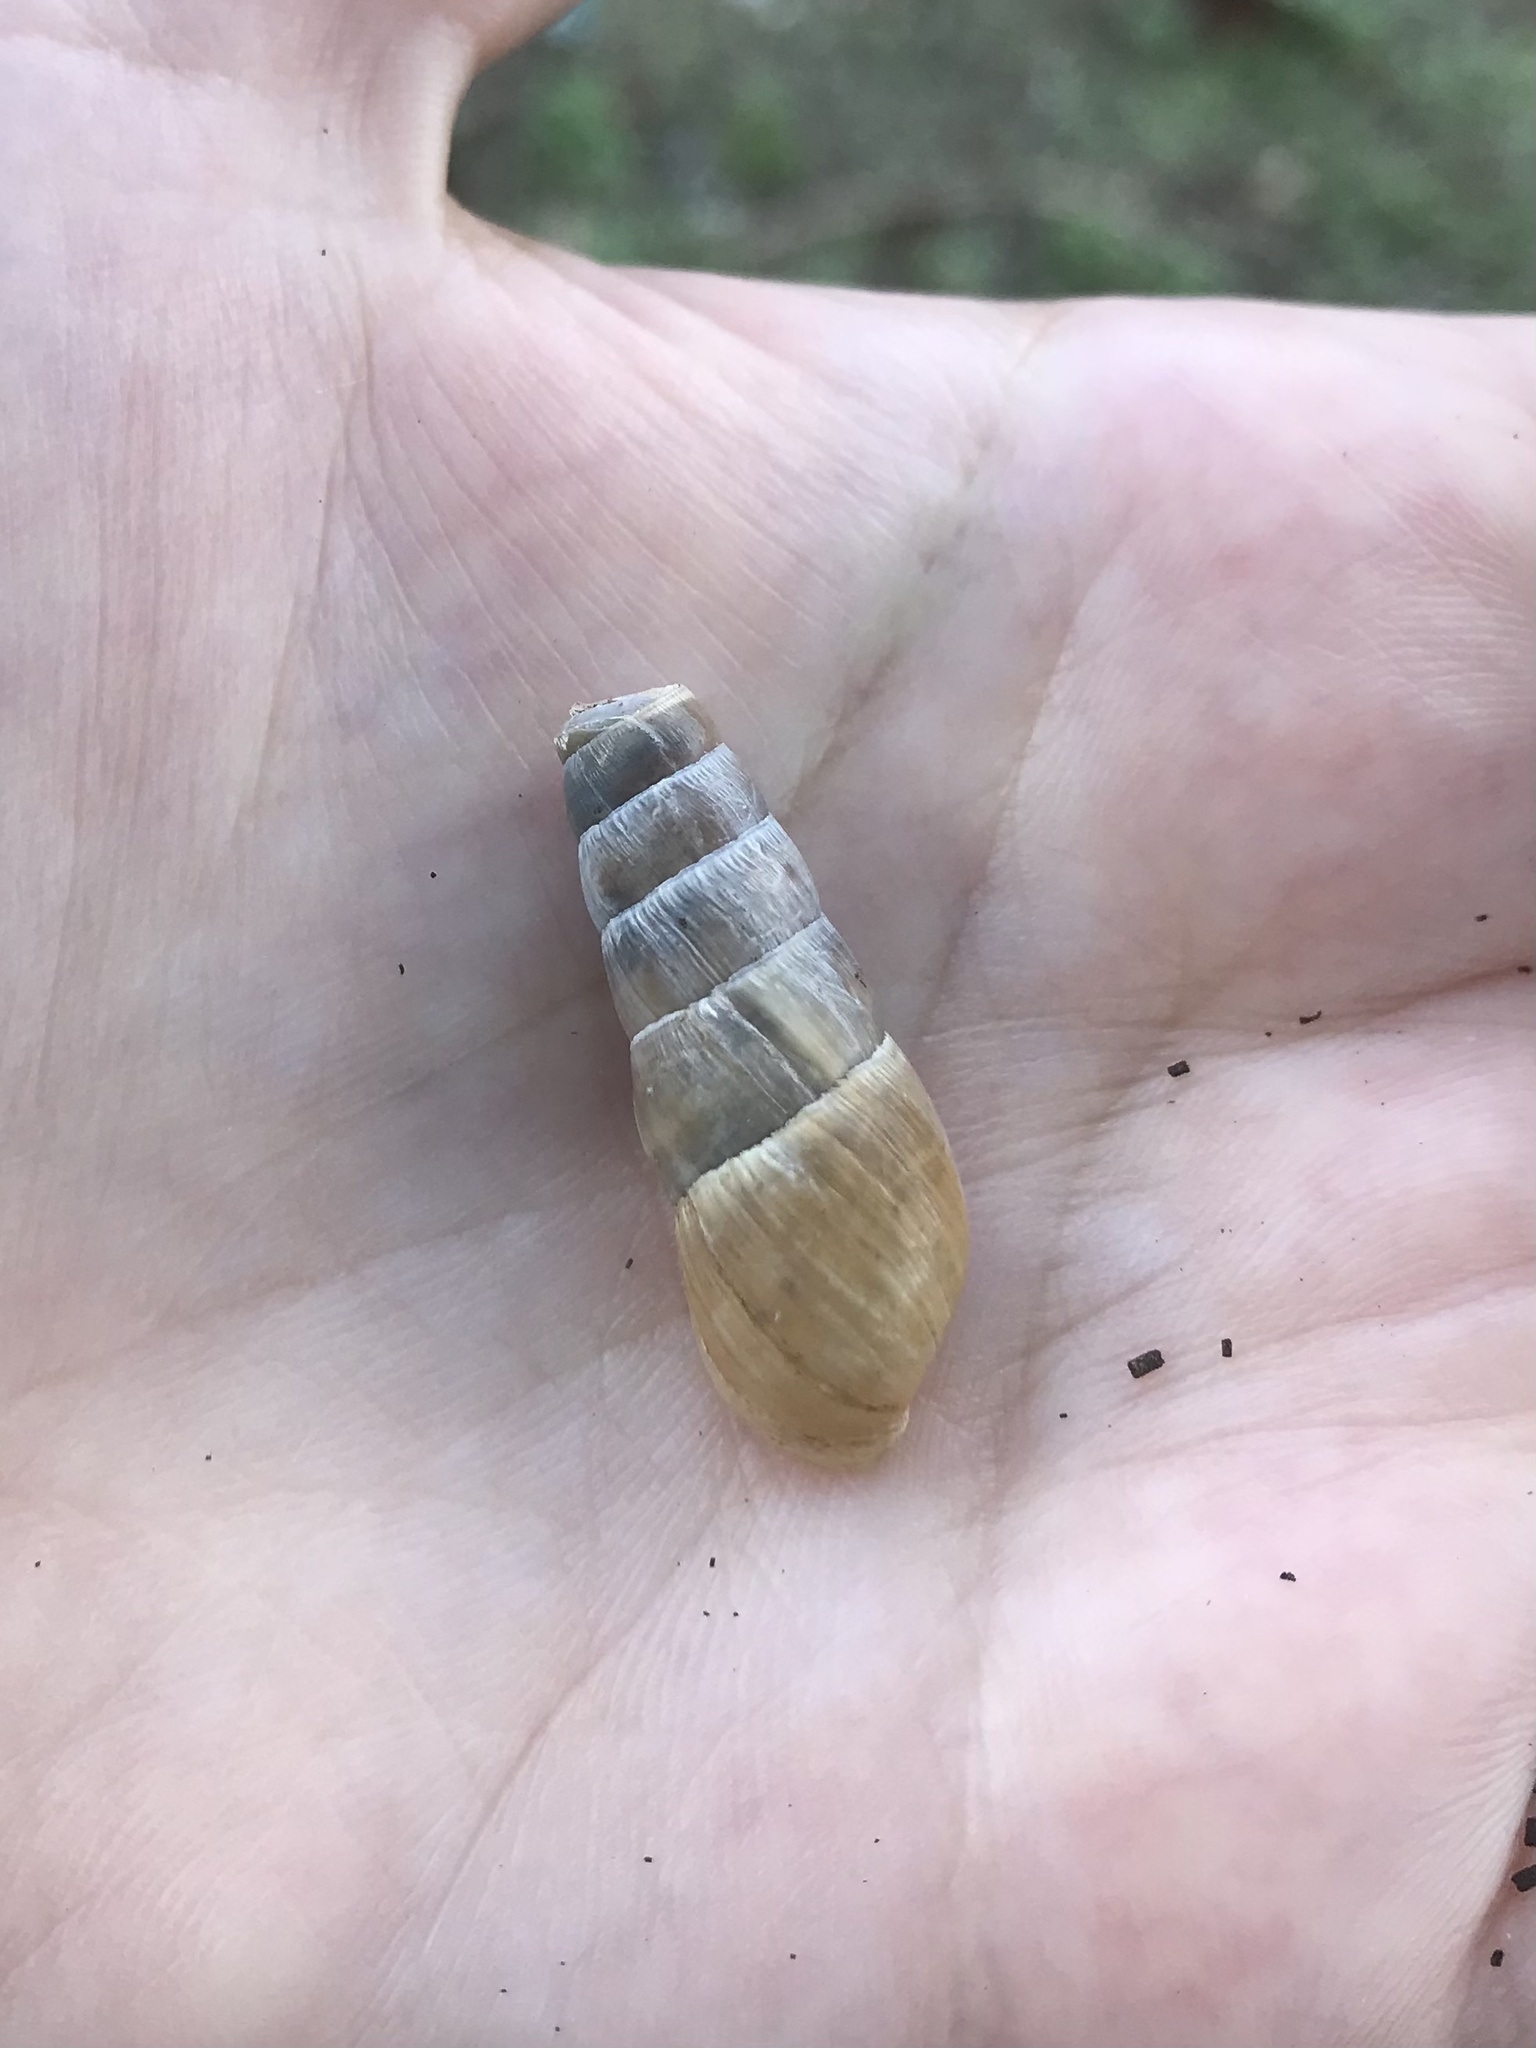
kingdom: Animalia
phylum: Mollusca
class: Gastropoda
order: Stylommatophora
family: Achatinidae
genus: Rumina
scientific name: Rumina decollata
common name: Decollate snail
